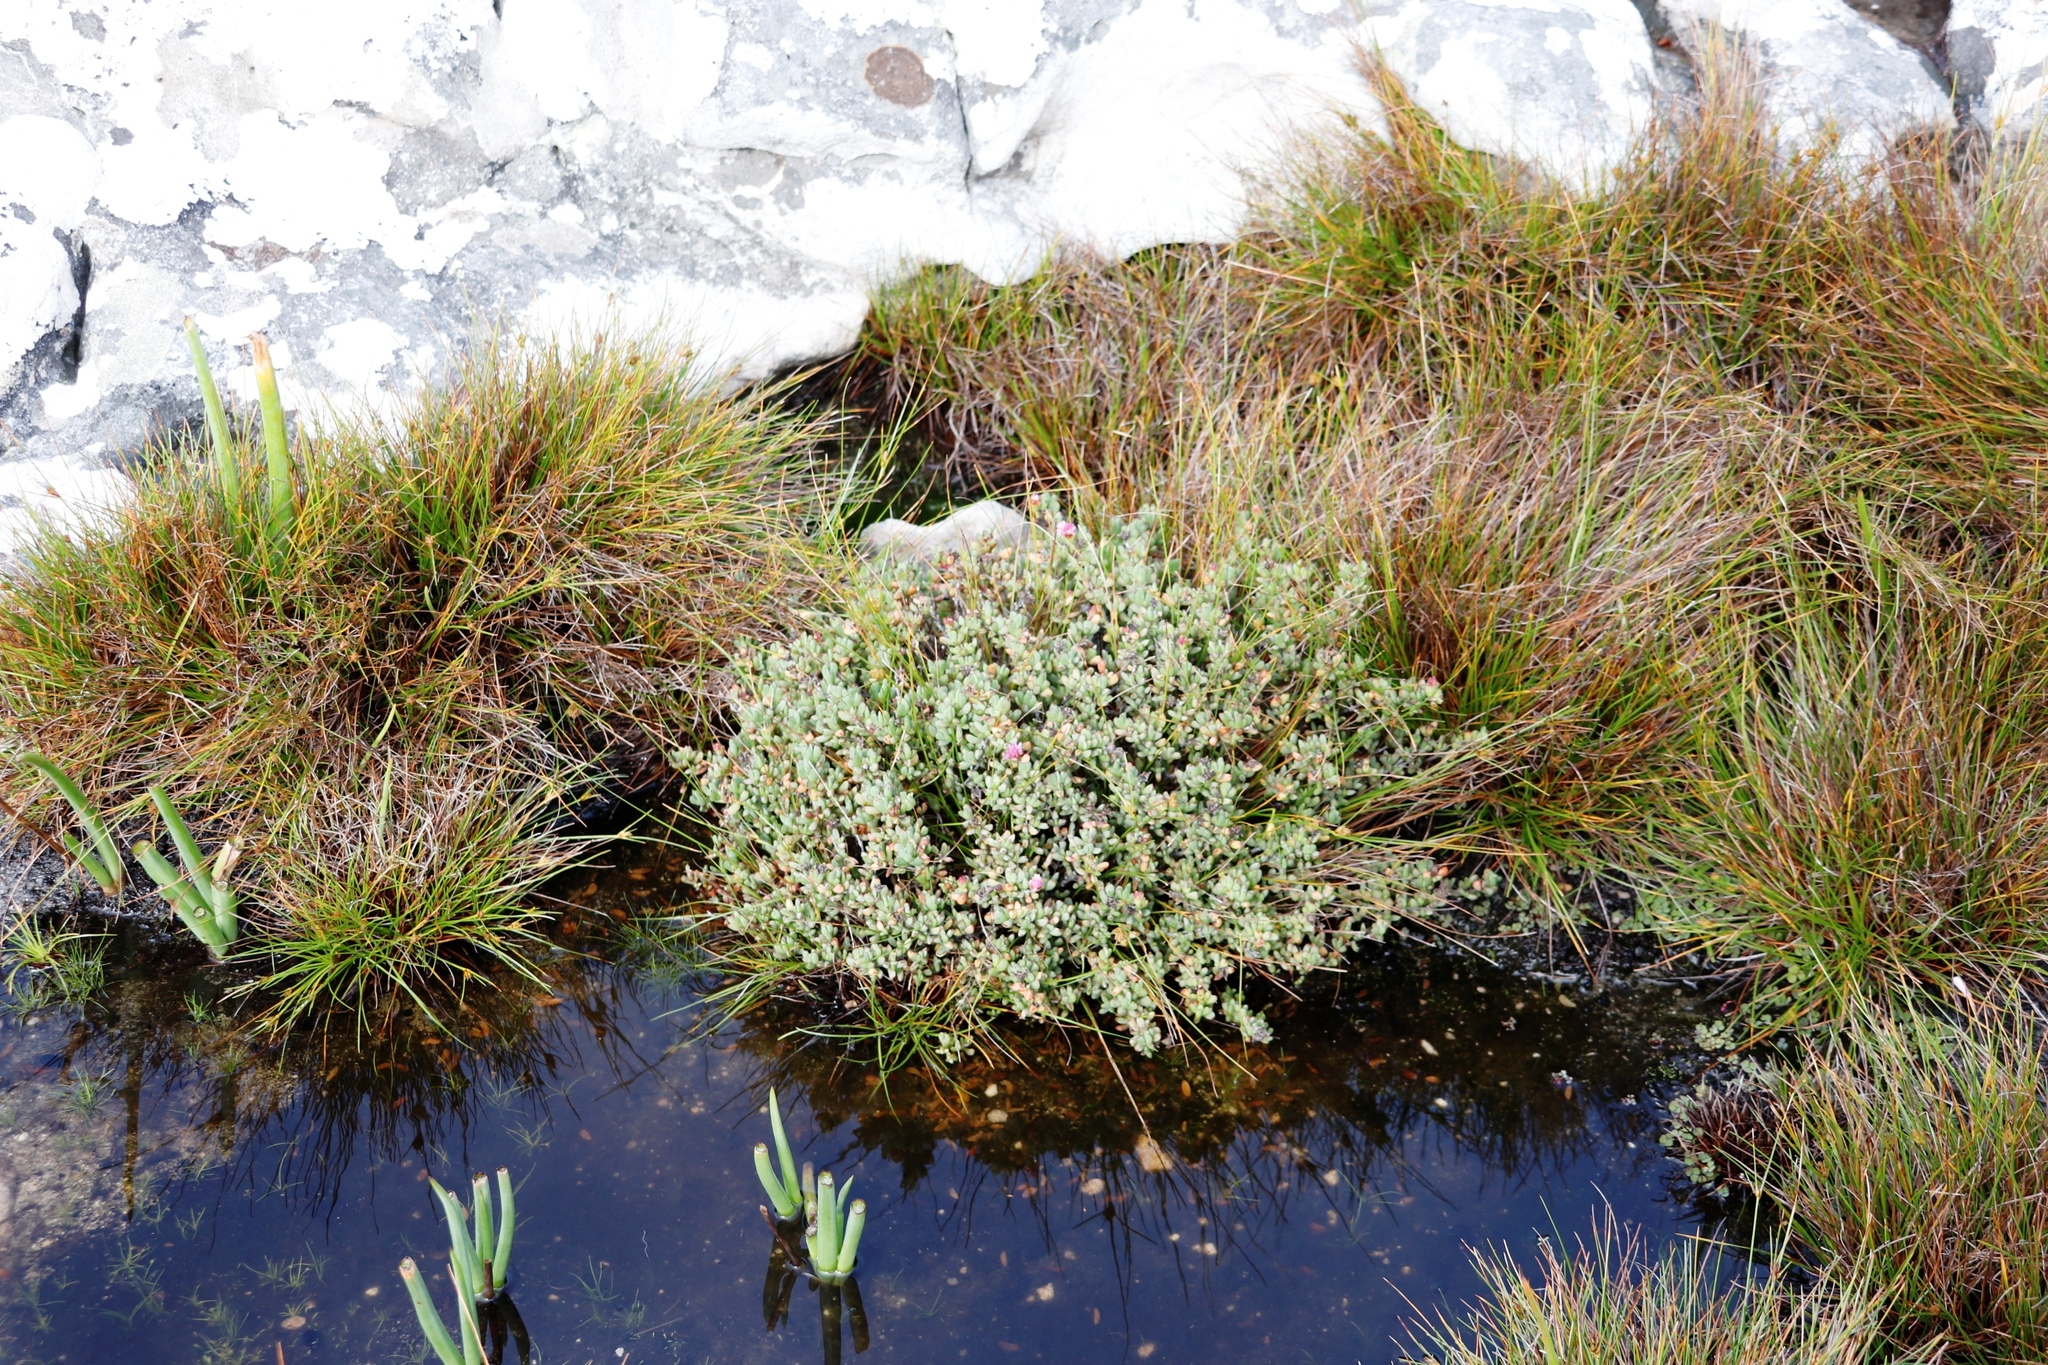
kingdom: Plantae
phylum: Tracheophyta
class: Magnoliopsida
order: Caryophyllales
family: Aizoaceae
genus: Oscularia
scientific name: Oscularia falciformis
